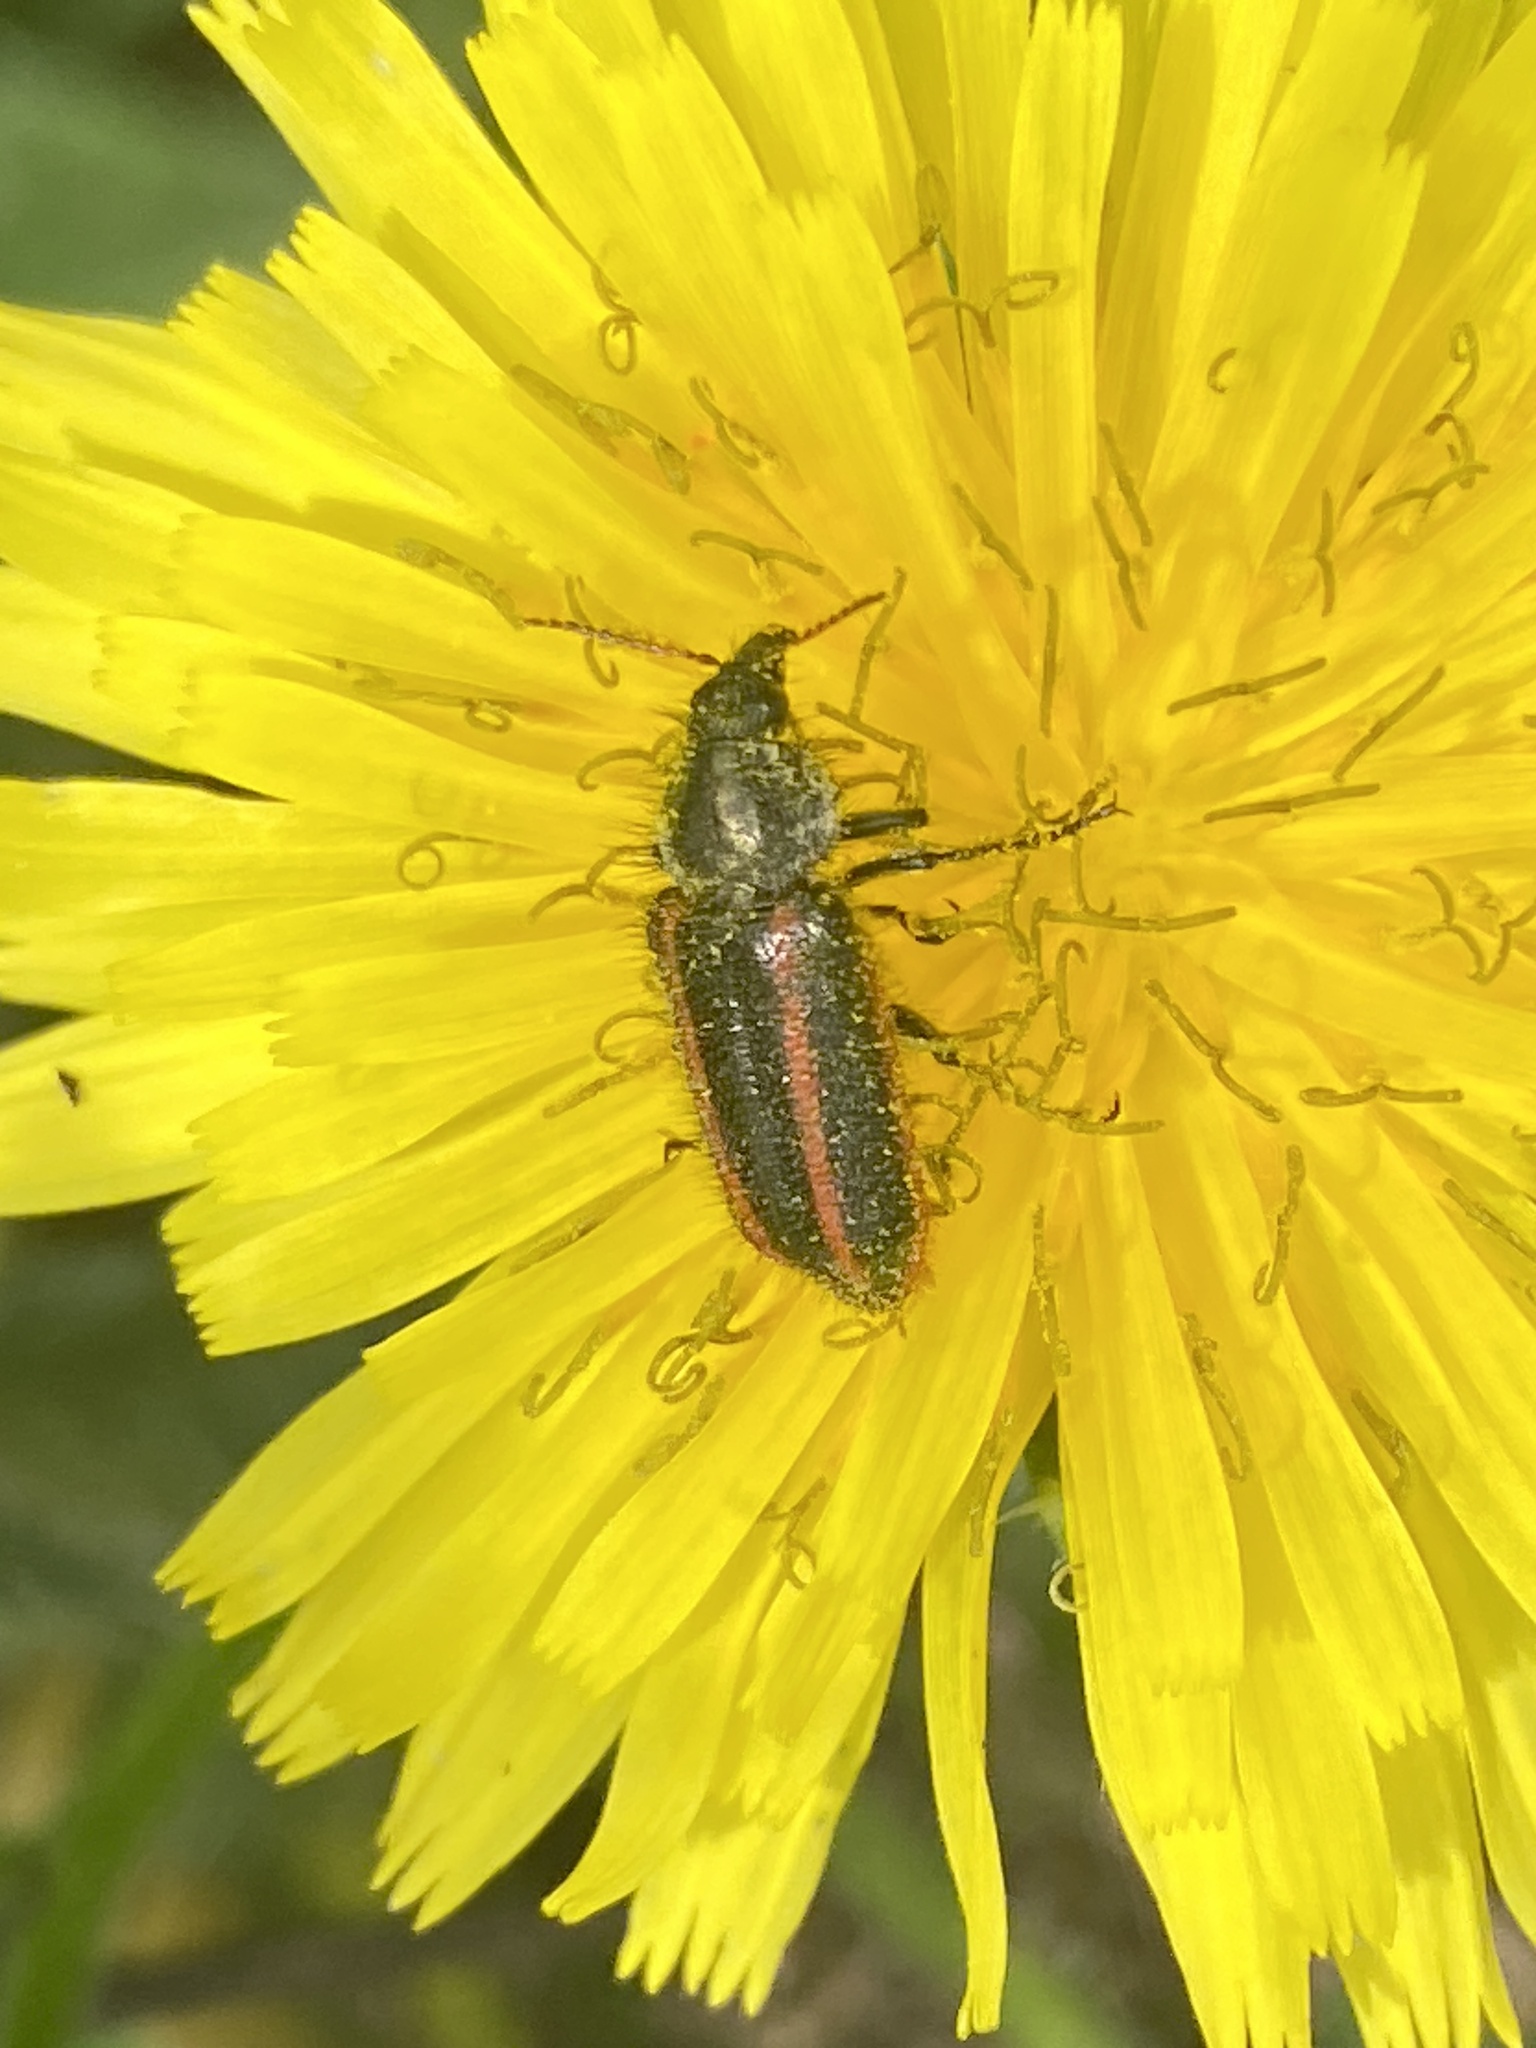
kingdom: Animalia
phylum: Arthropoda
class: Insecta
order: Coleoptera
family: Melyridae
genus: Astylus
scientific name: Astylus
